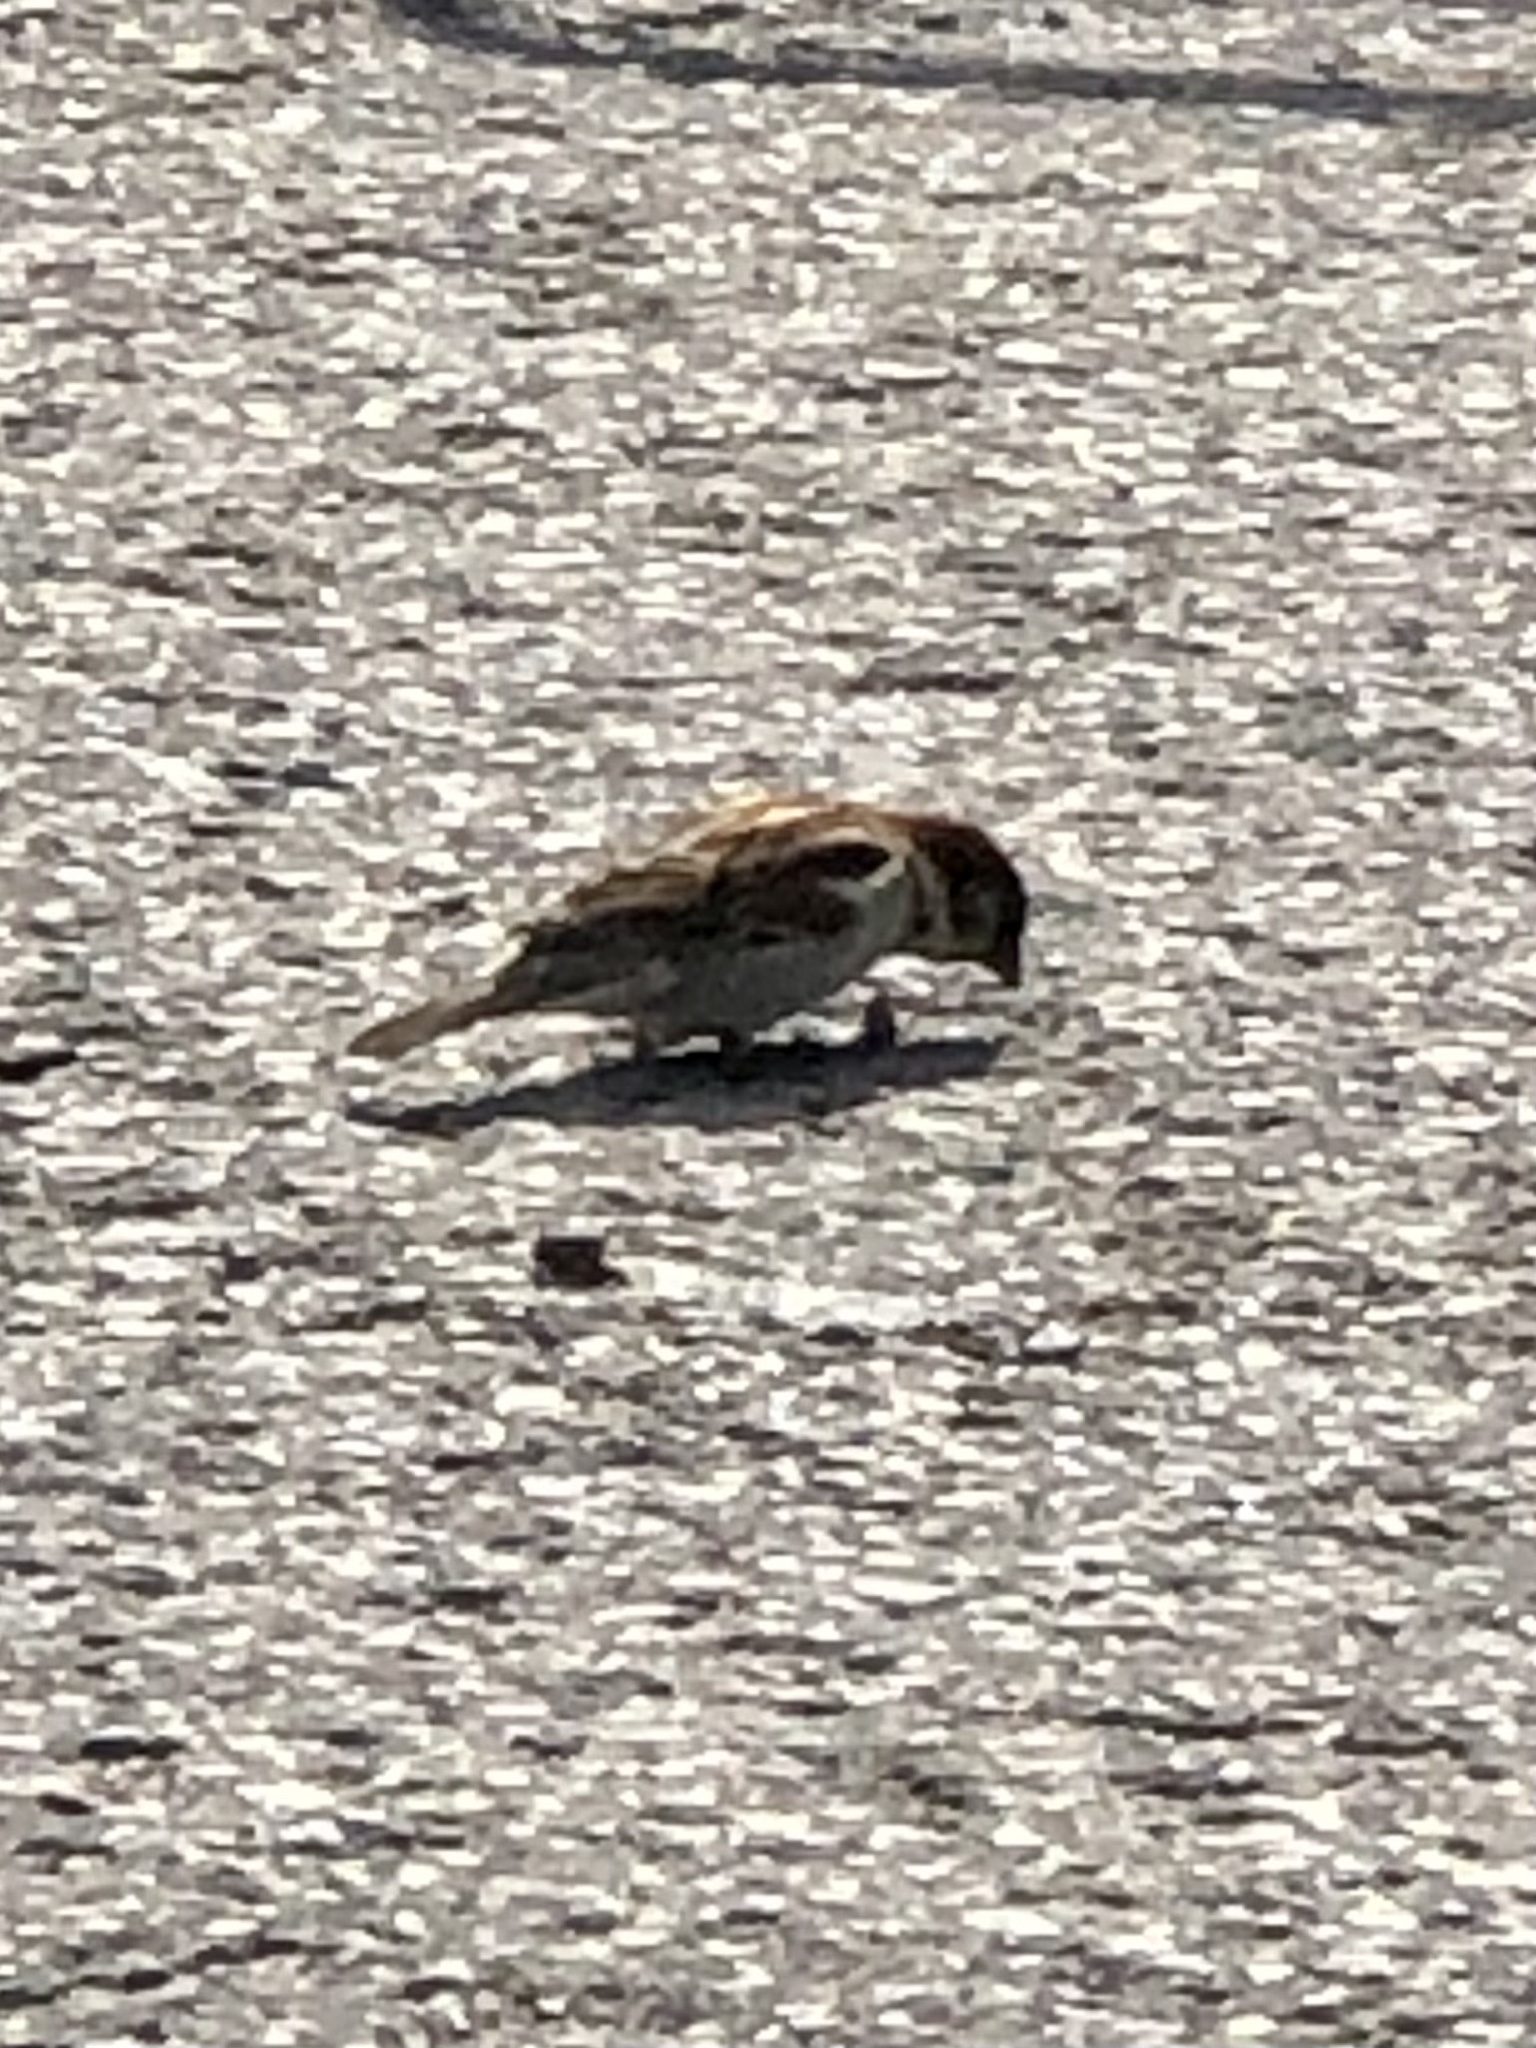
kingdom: Animalia
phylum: Chordata
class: Aves
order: Passeriformes
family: Passeridae
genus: Passer
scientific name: Passer domesticus
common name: House sparrow
